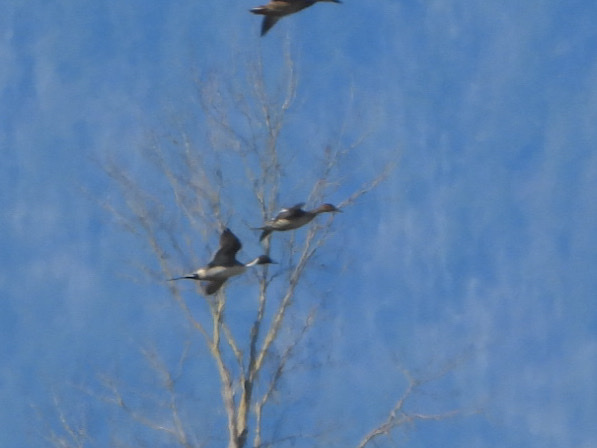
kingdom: Animalia
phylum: Chordata
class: Aves
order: Anseriformes
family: Anatidae
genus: Anas
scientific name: Anas acuta
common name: Northern pintail
